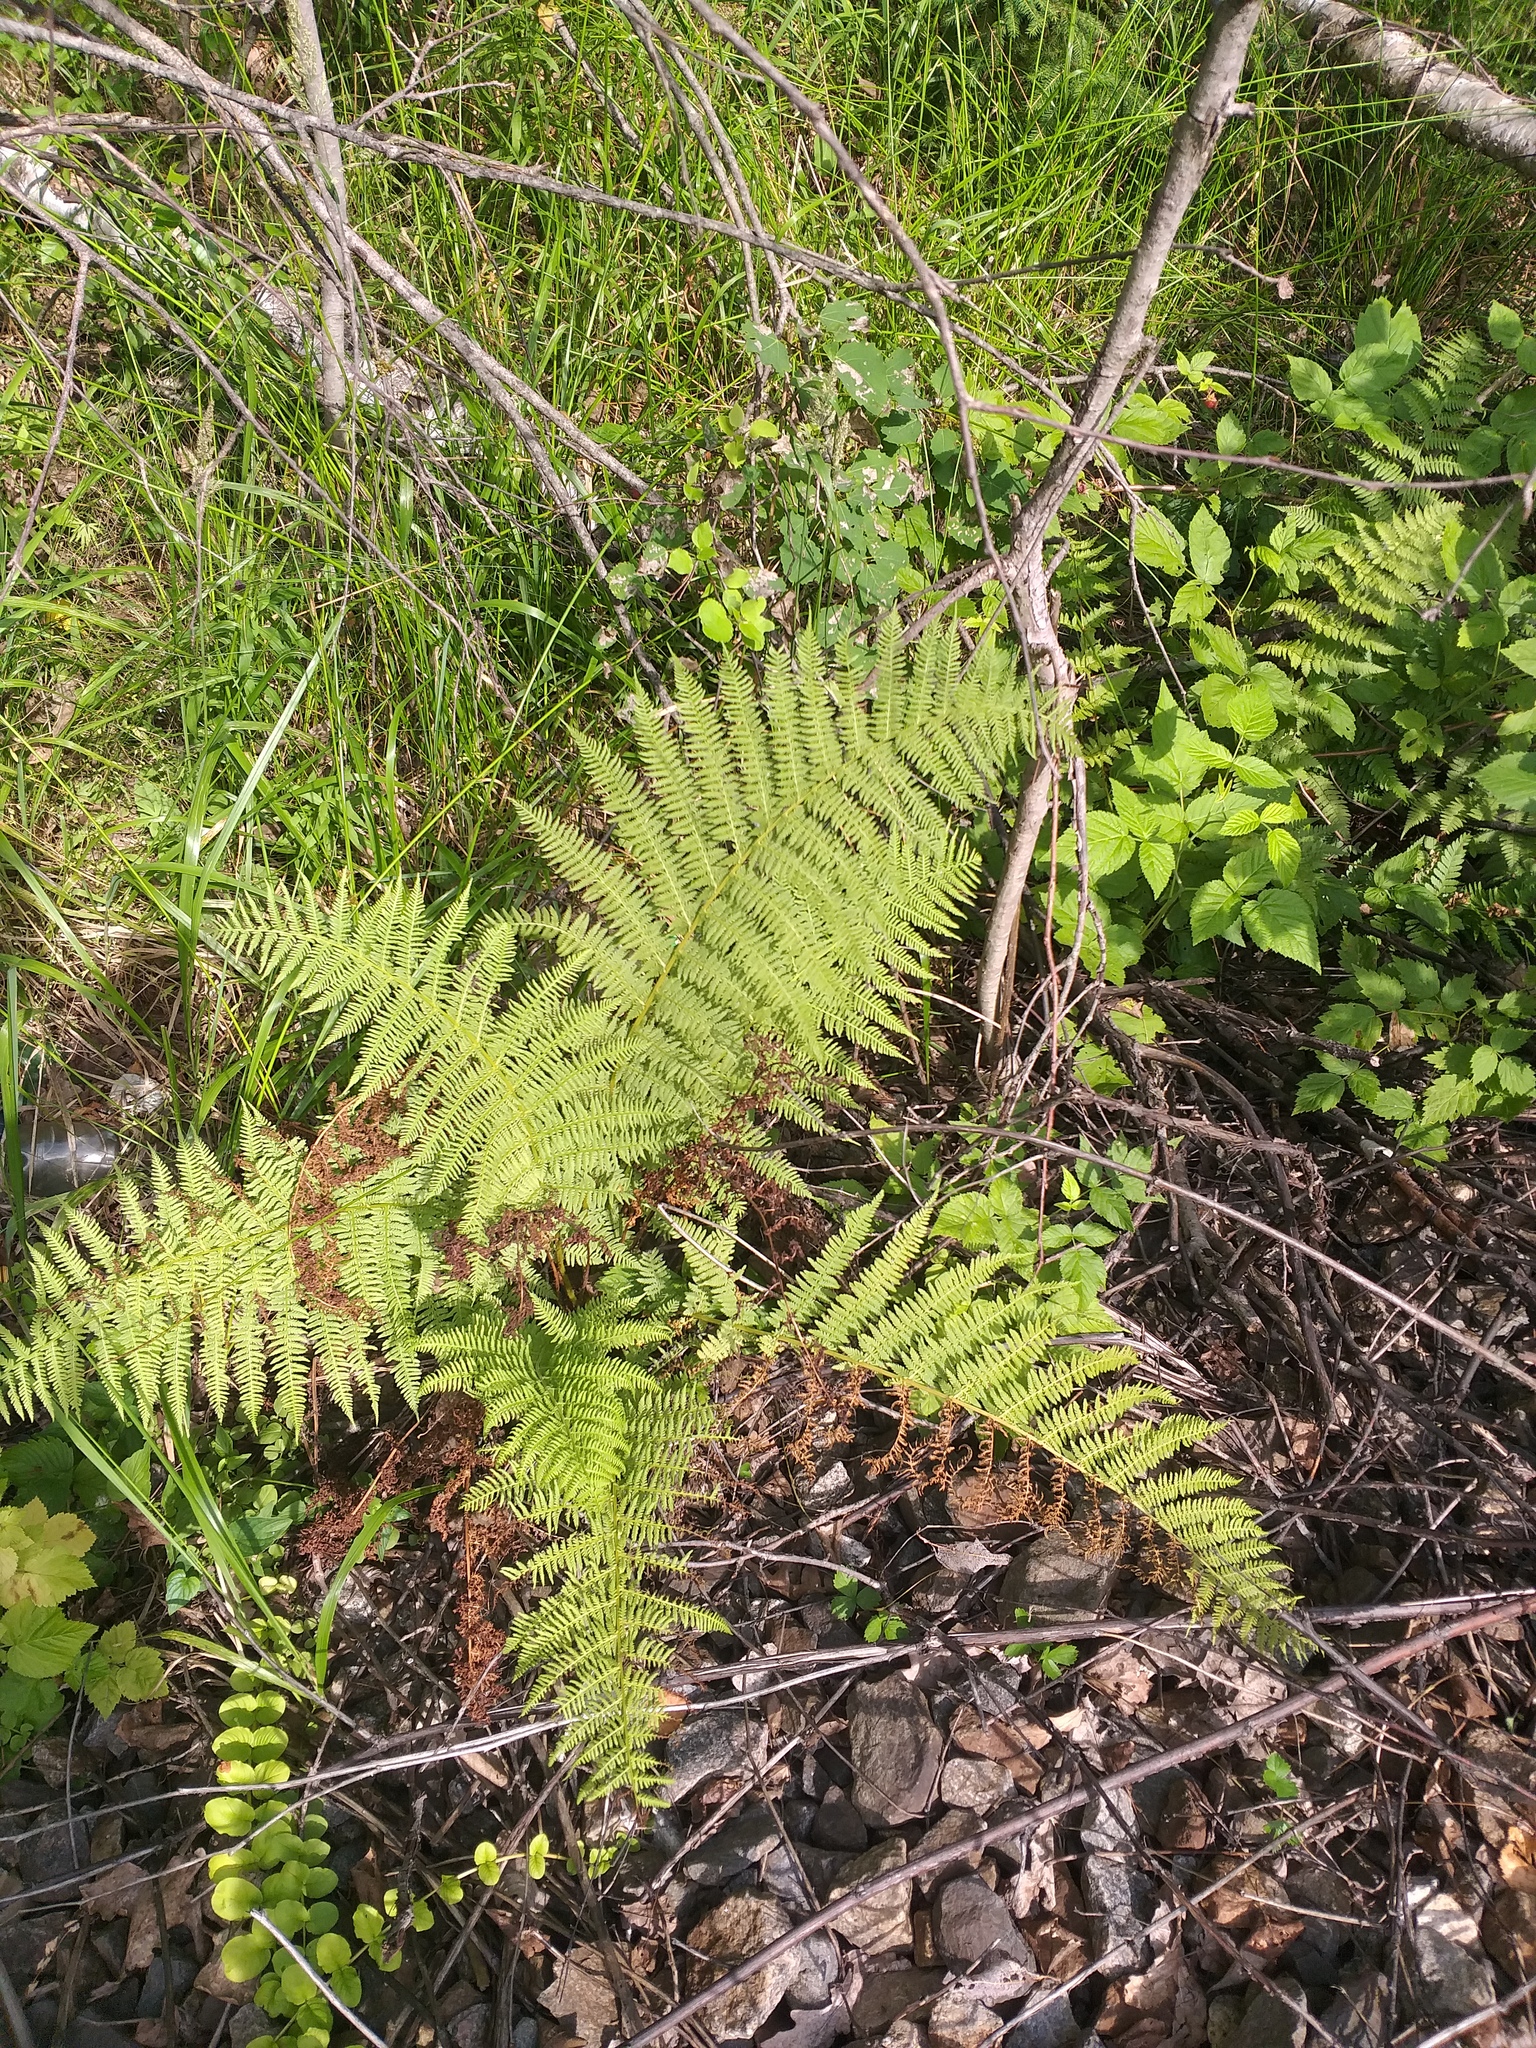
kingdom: Plantae
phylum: Tracheophyta
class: Polypodiopsida
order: Polypodiales
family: Athyriaceae
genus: Athyrium
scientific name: Athyrium filix-femina
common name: Lady fern
